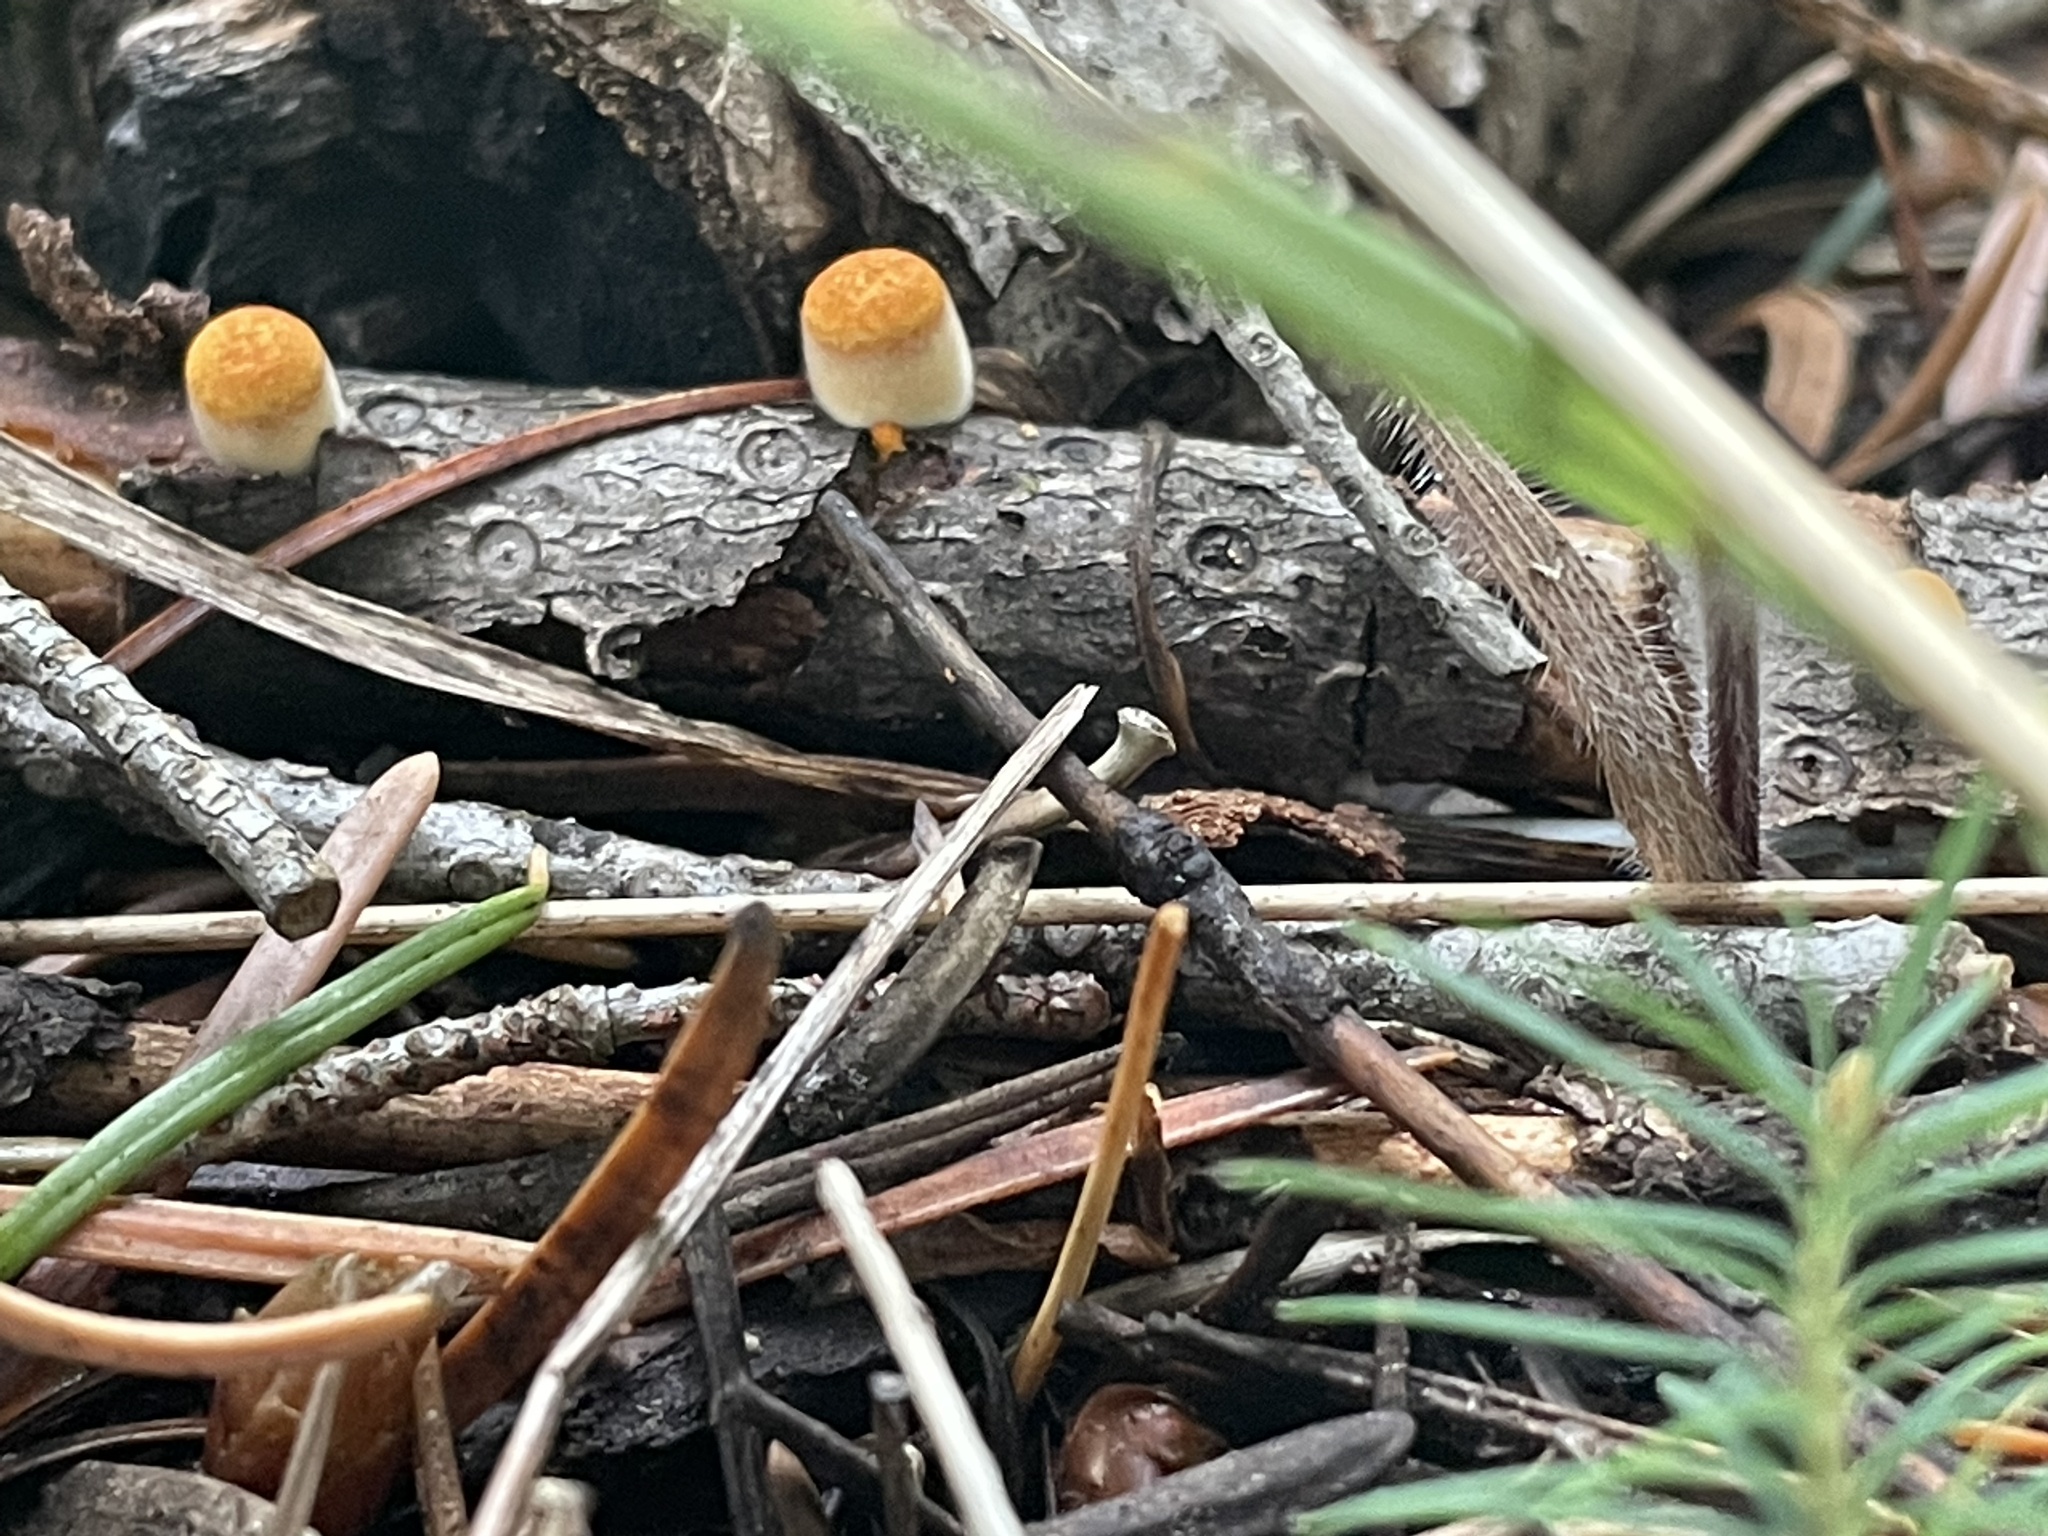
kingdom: Fungi
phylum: Basidiomycota
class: Agaricomycetes
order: Agaricales
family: Nidulariaceae
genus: Crucibulum
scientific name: Crucibulum cyathiforme
